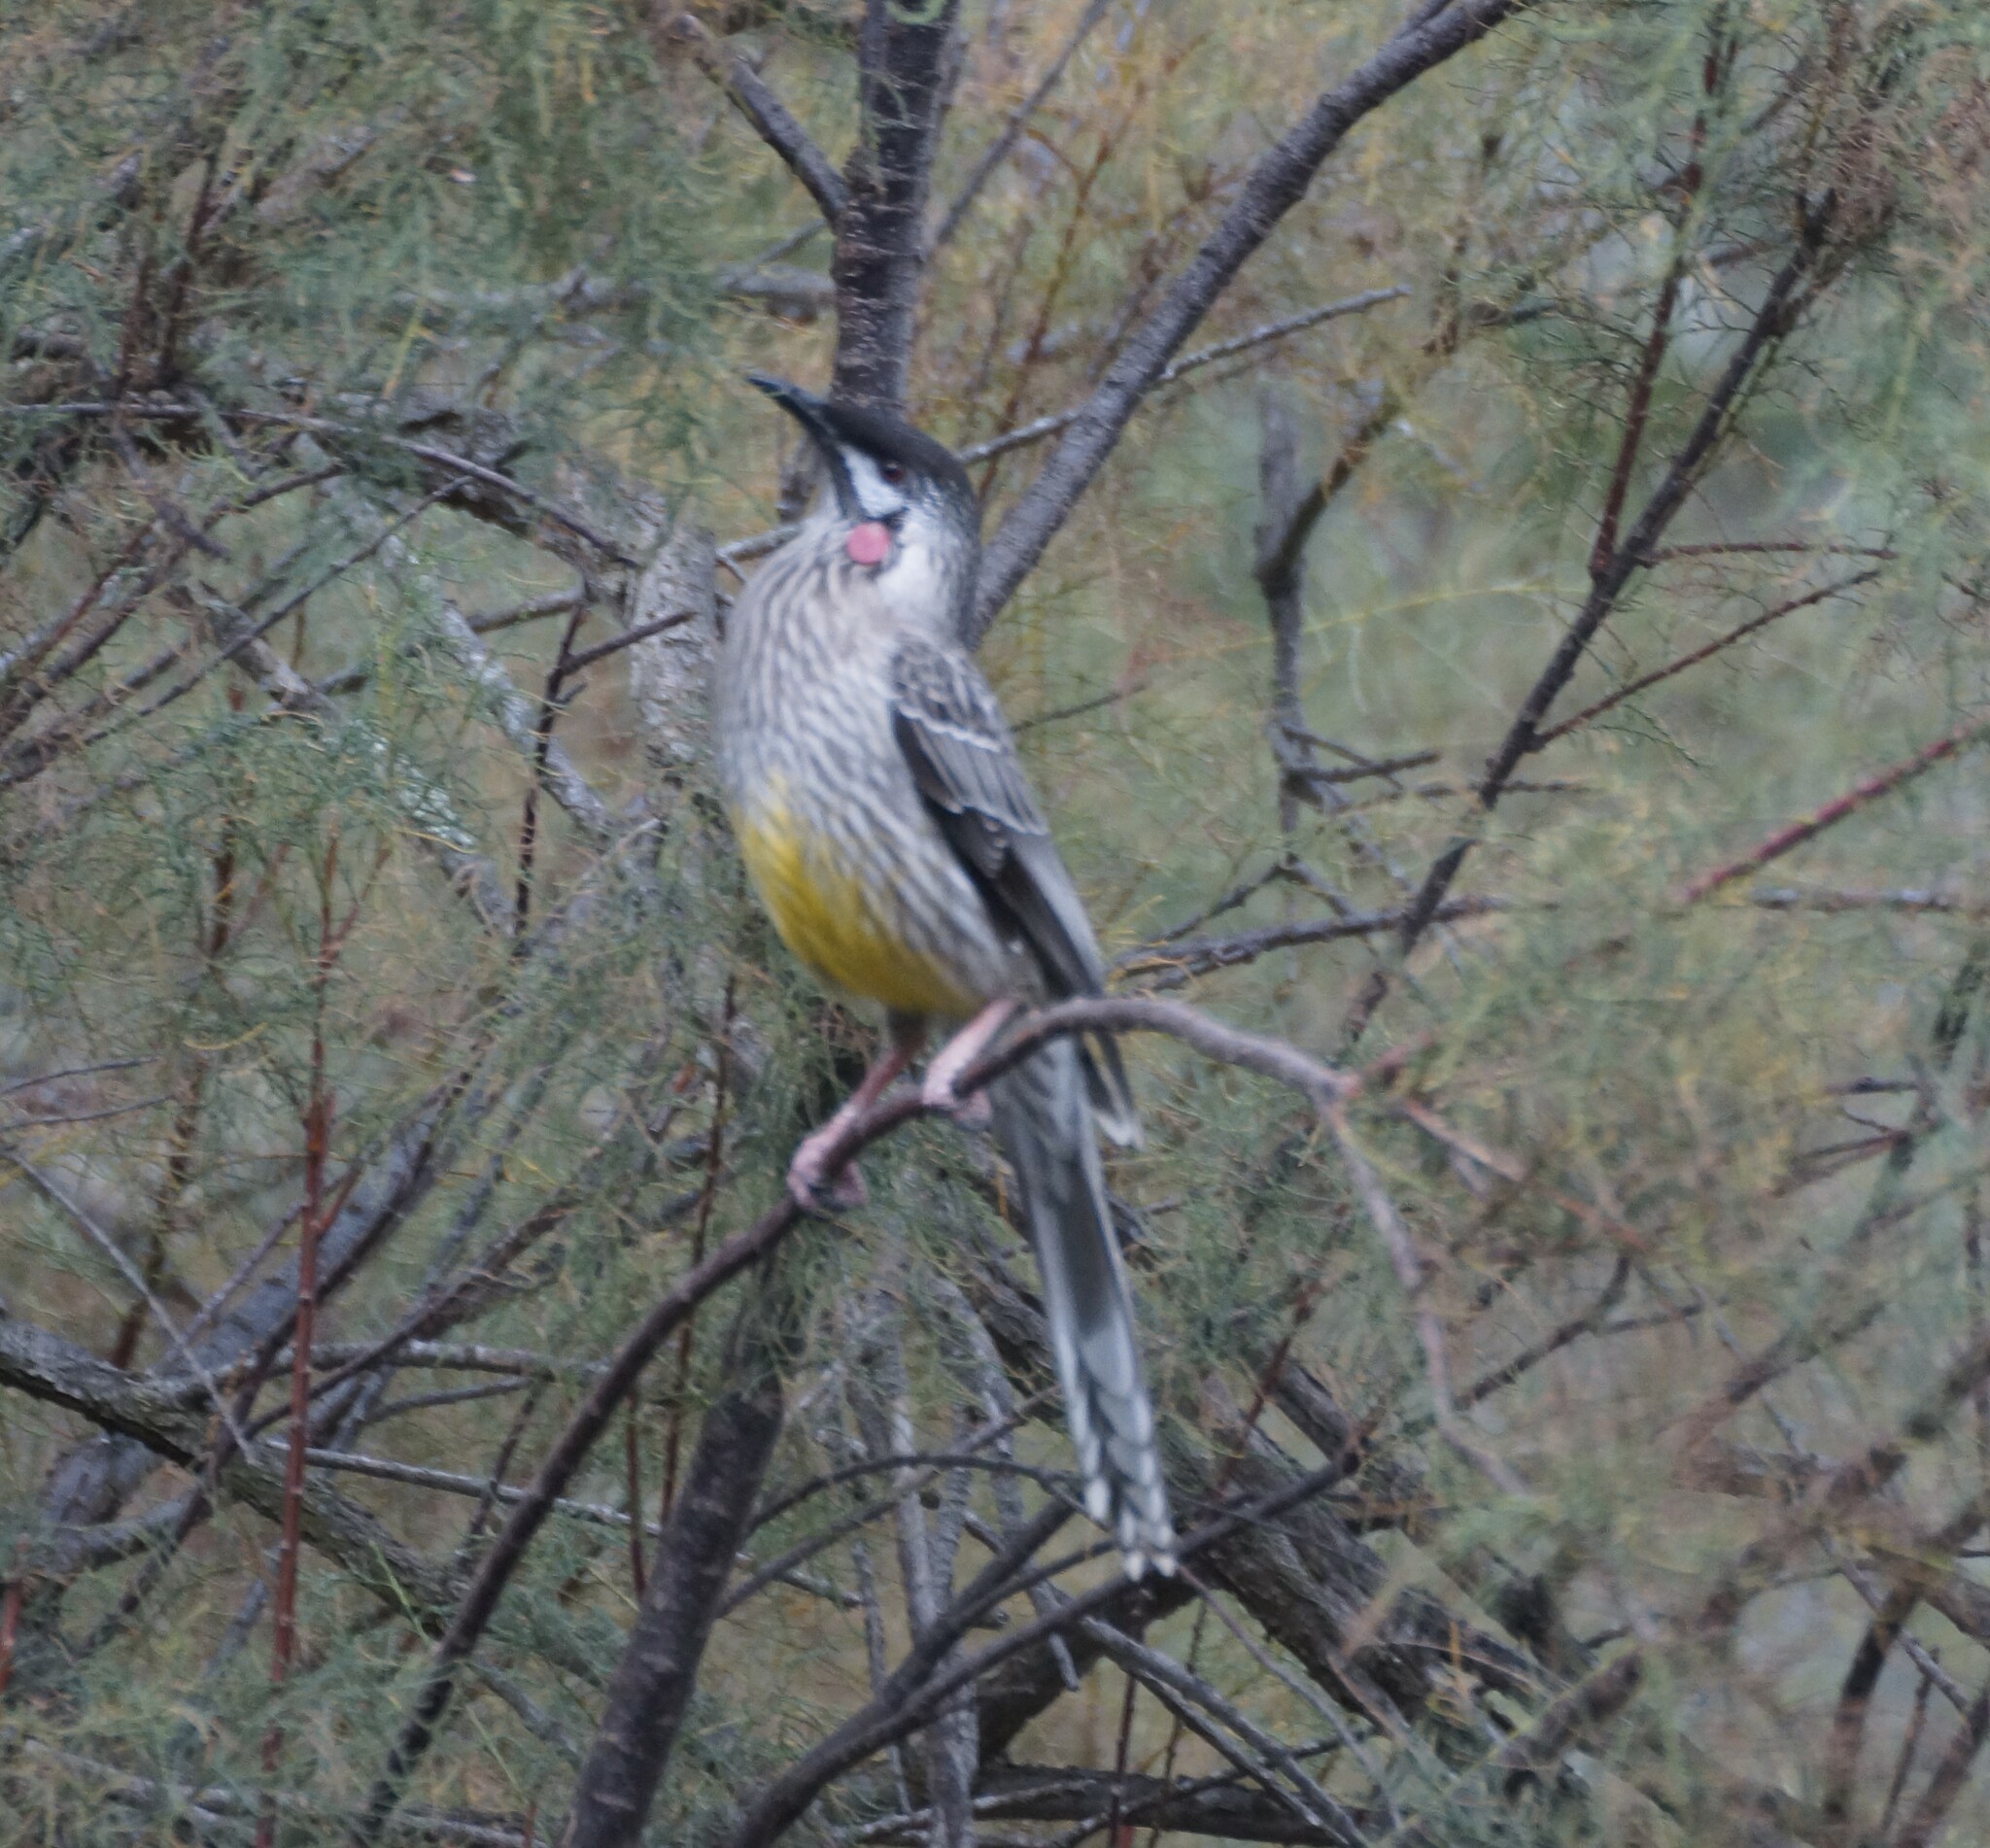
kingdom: Animalia
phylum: Chordata
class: Aves
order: Passeriformes
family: Meliphagidae
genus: Anthochaera
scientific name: Anthochaera carunculata
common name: Red wattlebird
